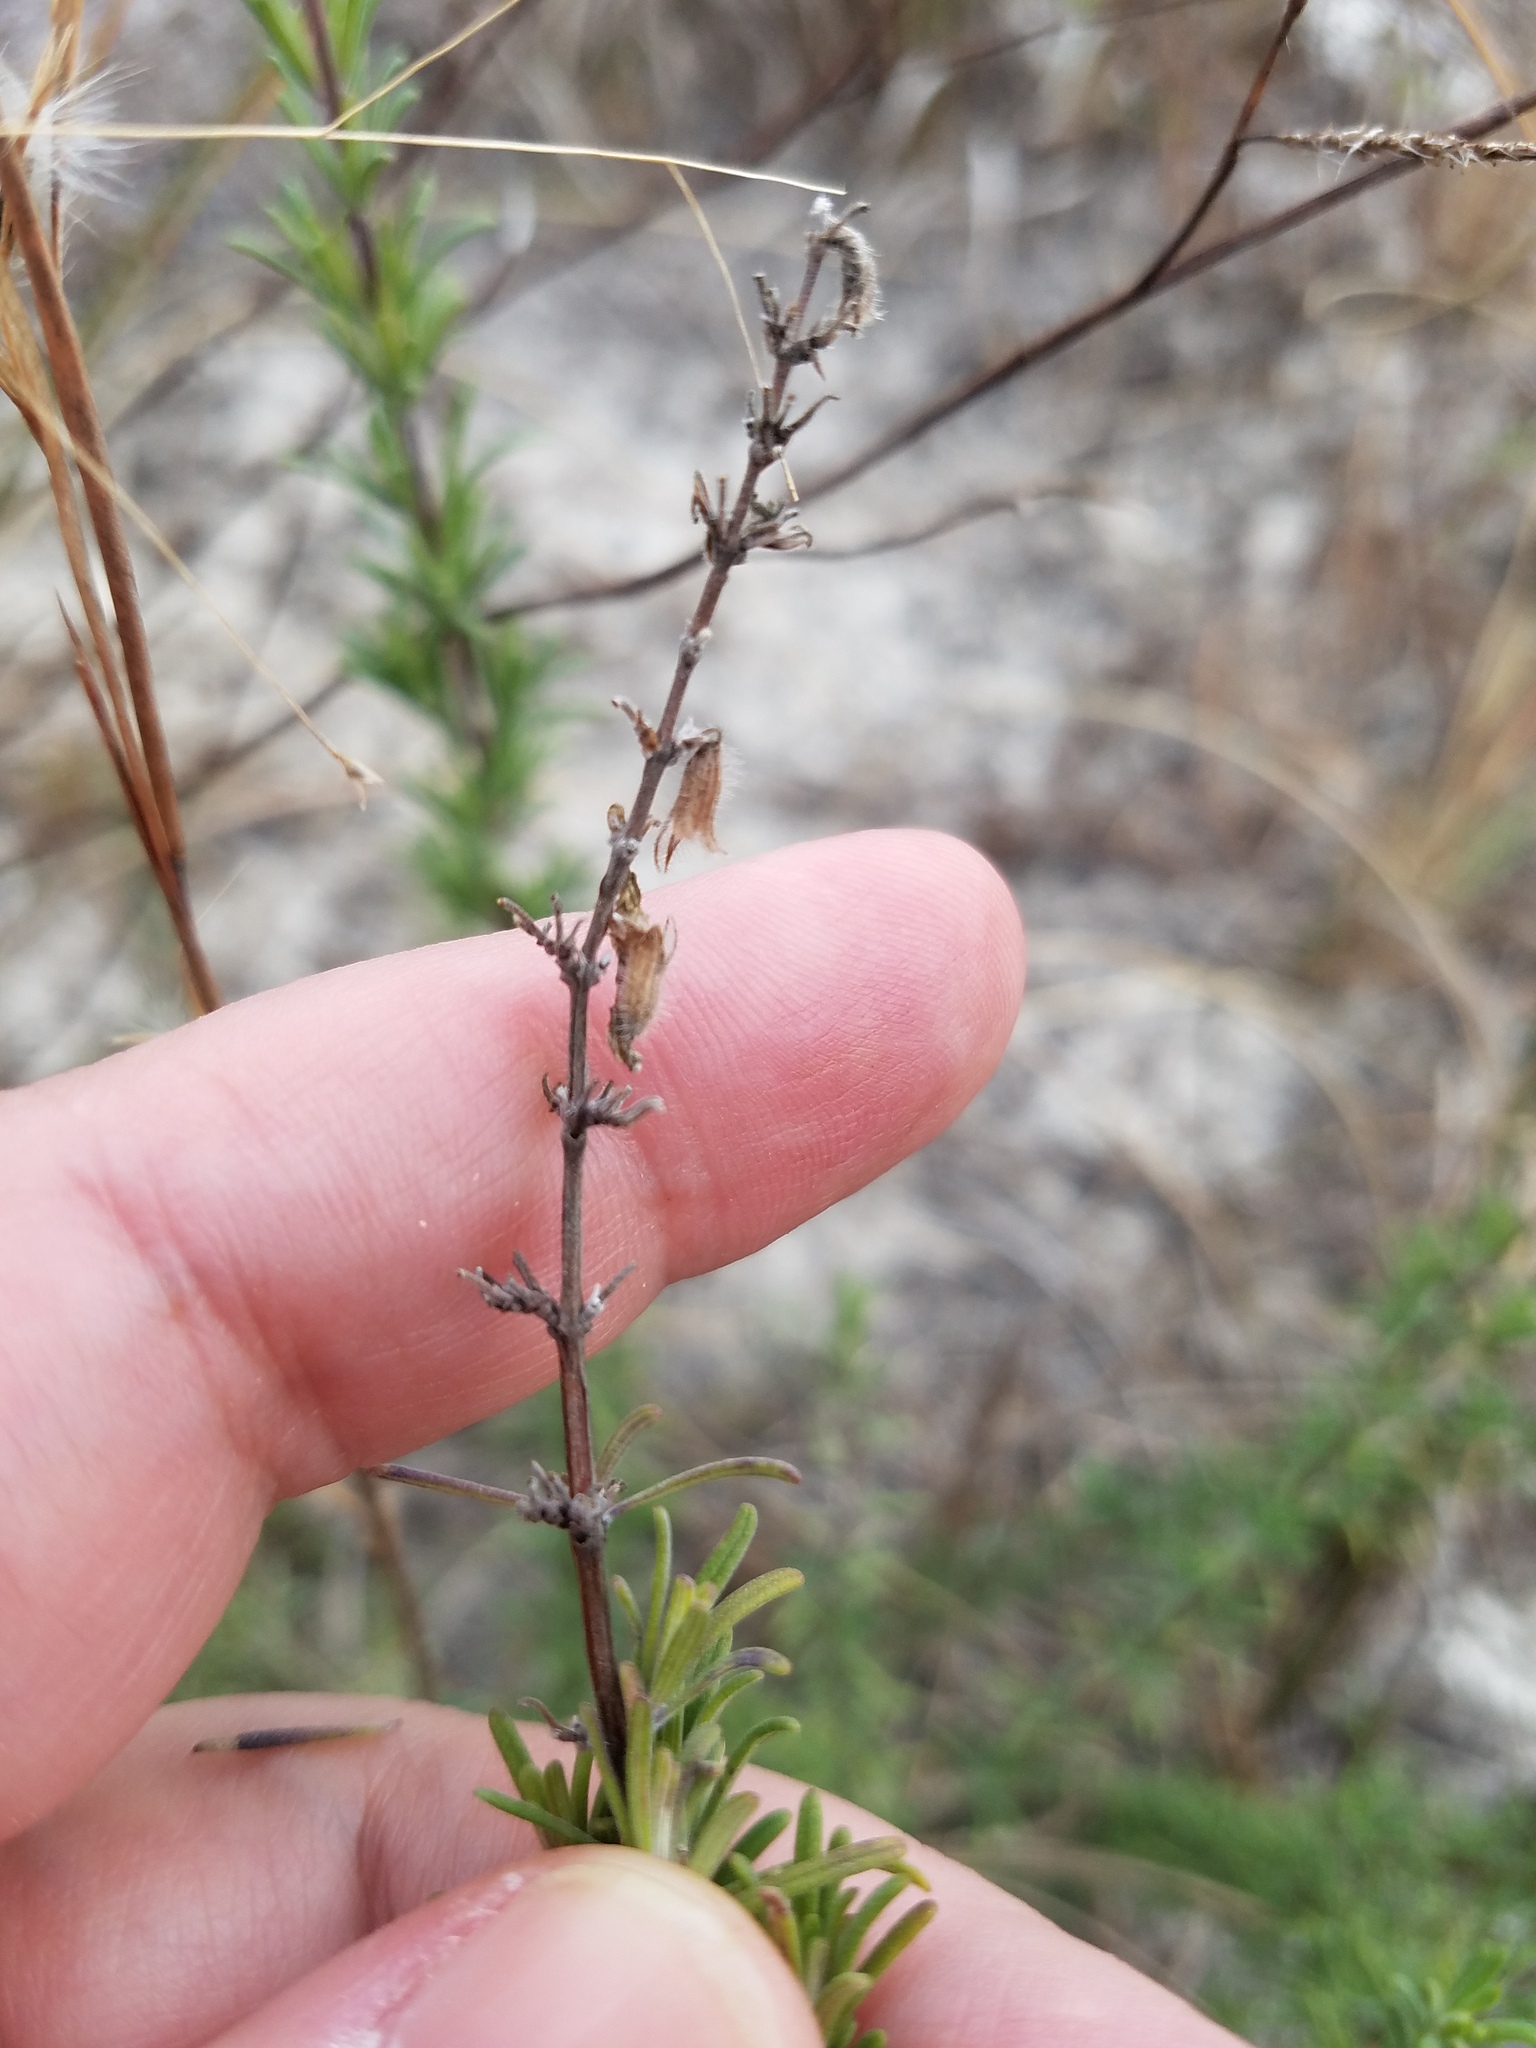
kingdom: Plantae
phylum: Tracheophyta
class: Magnoliopsida
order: Lamiales
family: Lamiaceae
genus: Conradina
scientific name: Conradina canescens
